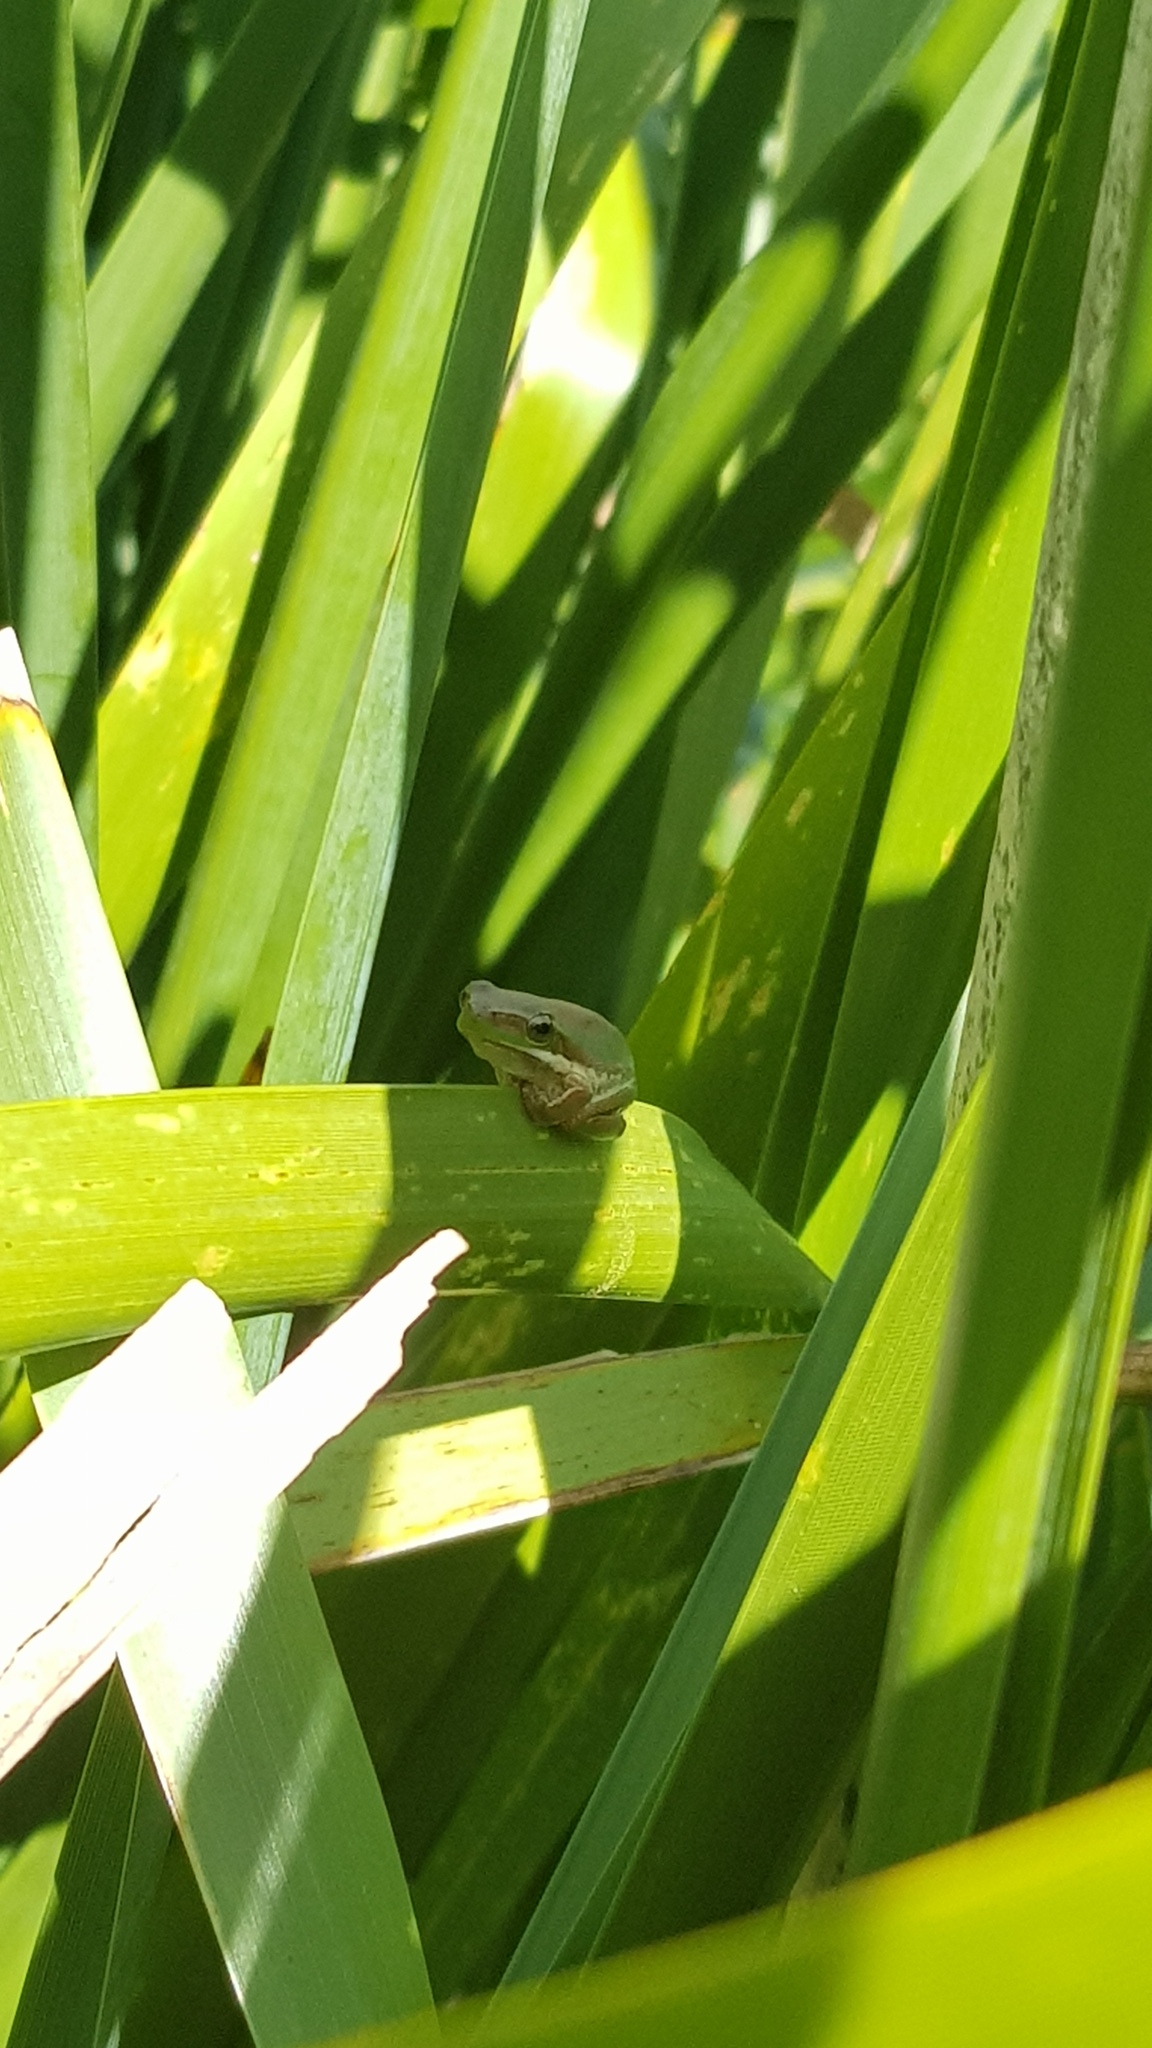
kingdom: Animalia
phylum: Chordata
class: Amphibia
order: Anura
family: Pelodryadidae
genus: Litoria
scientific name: Litoria fallax
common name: Eastern dwarf treefrog
